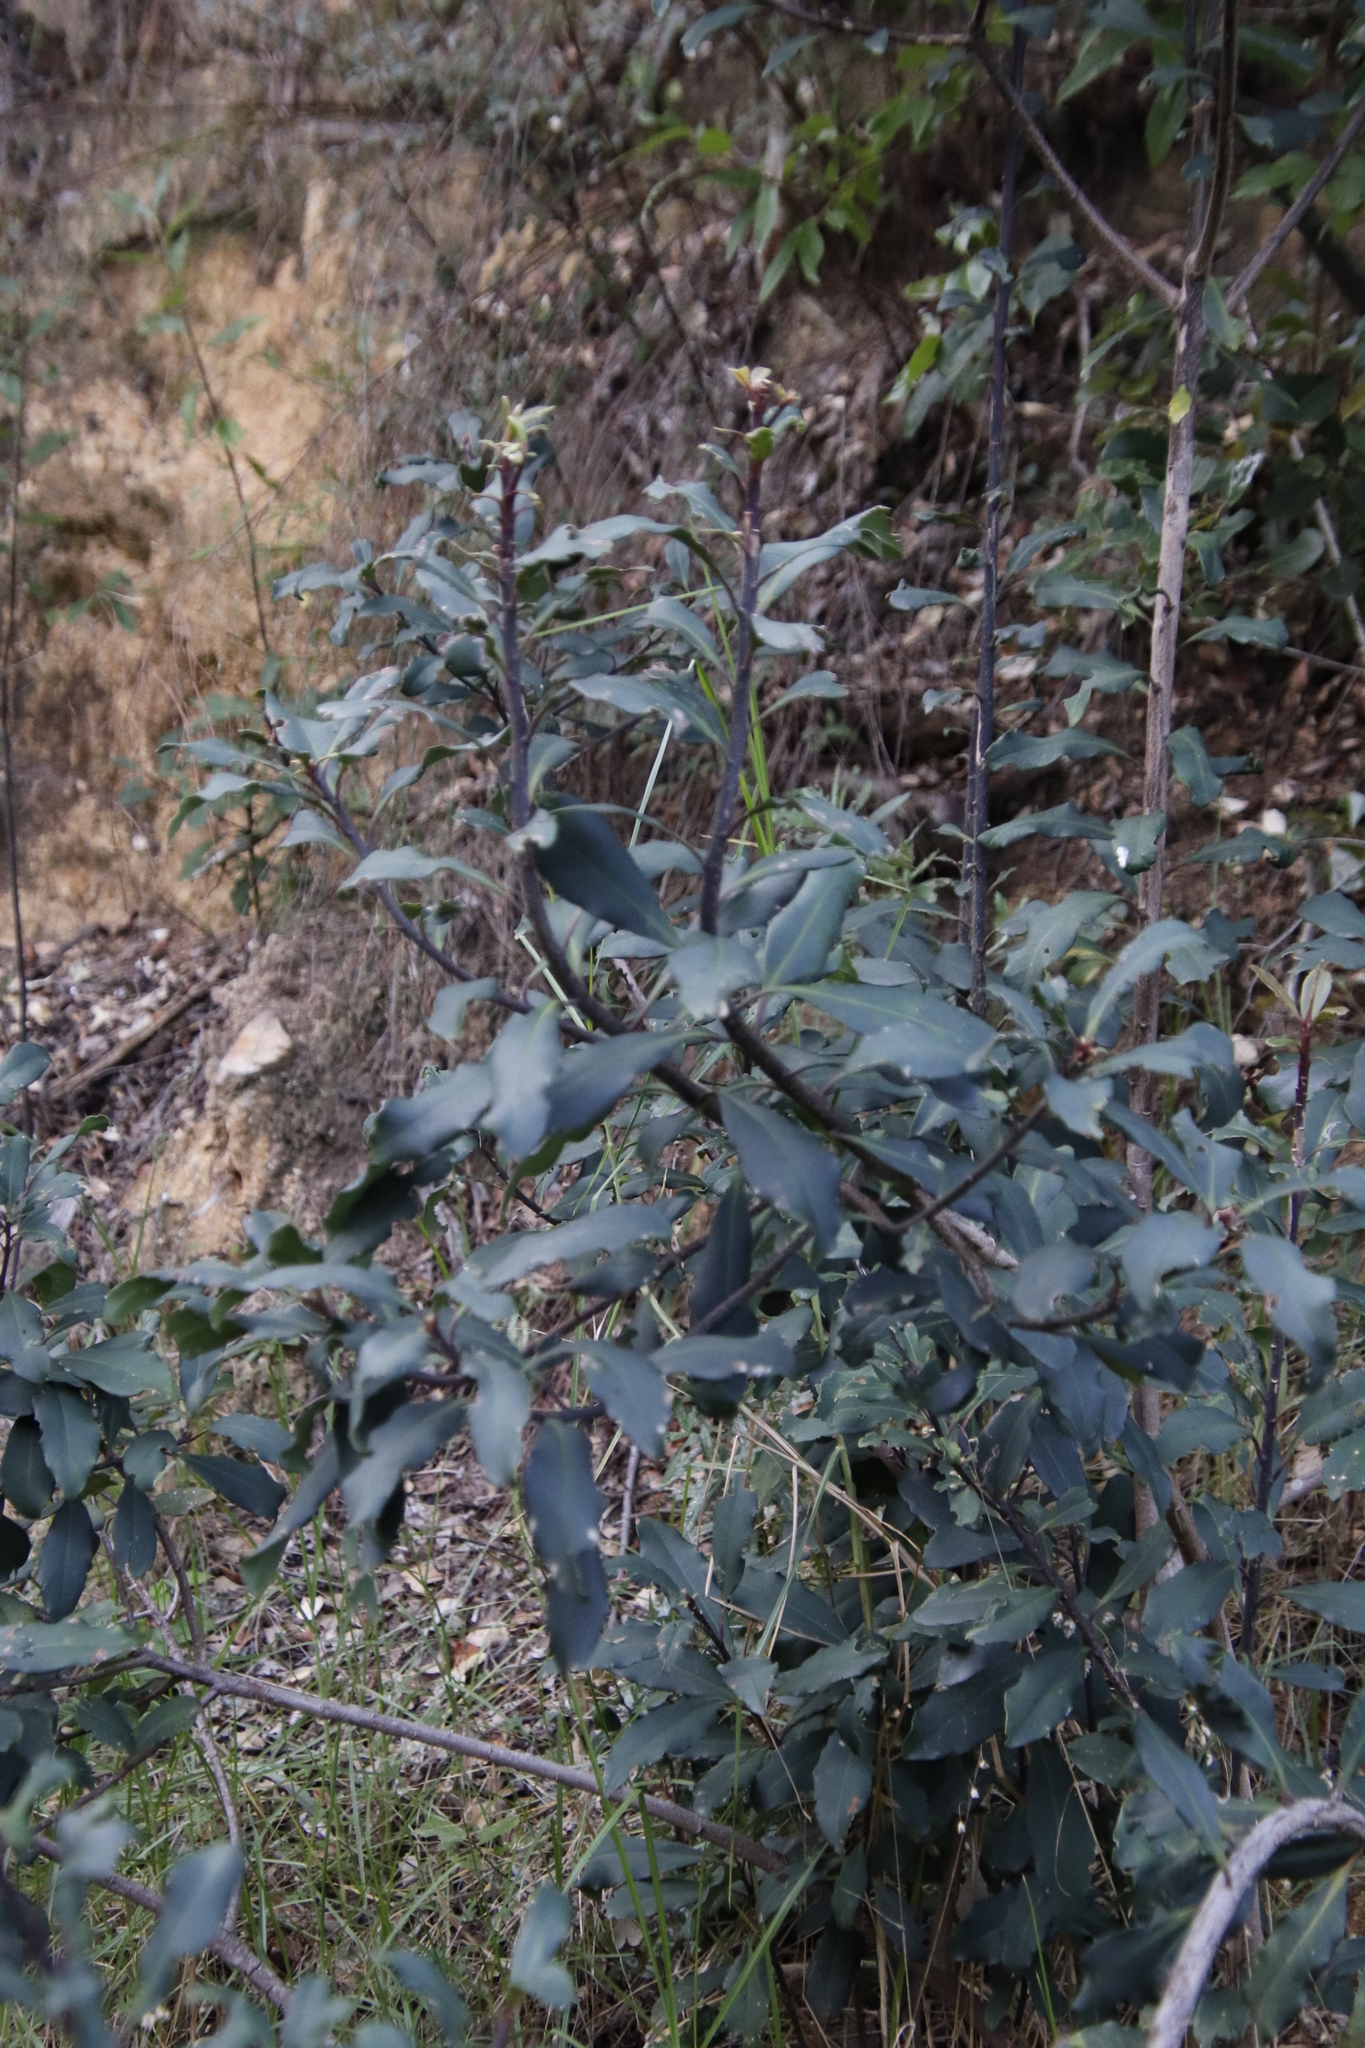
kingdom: Plantae
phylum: Tracheophyta
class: Magnoliopsida
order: Ericales
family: Primulaceae
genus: Myrsine
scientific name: Myrsine melanophloeos
